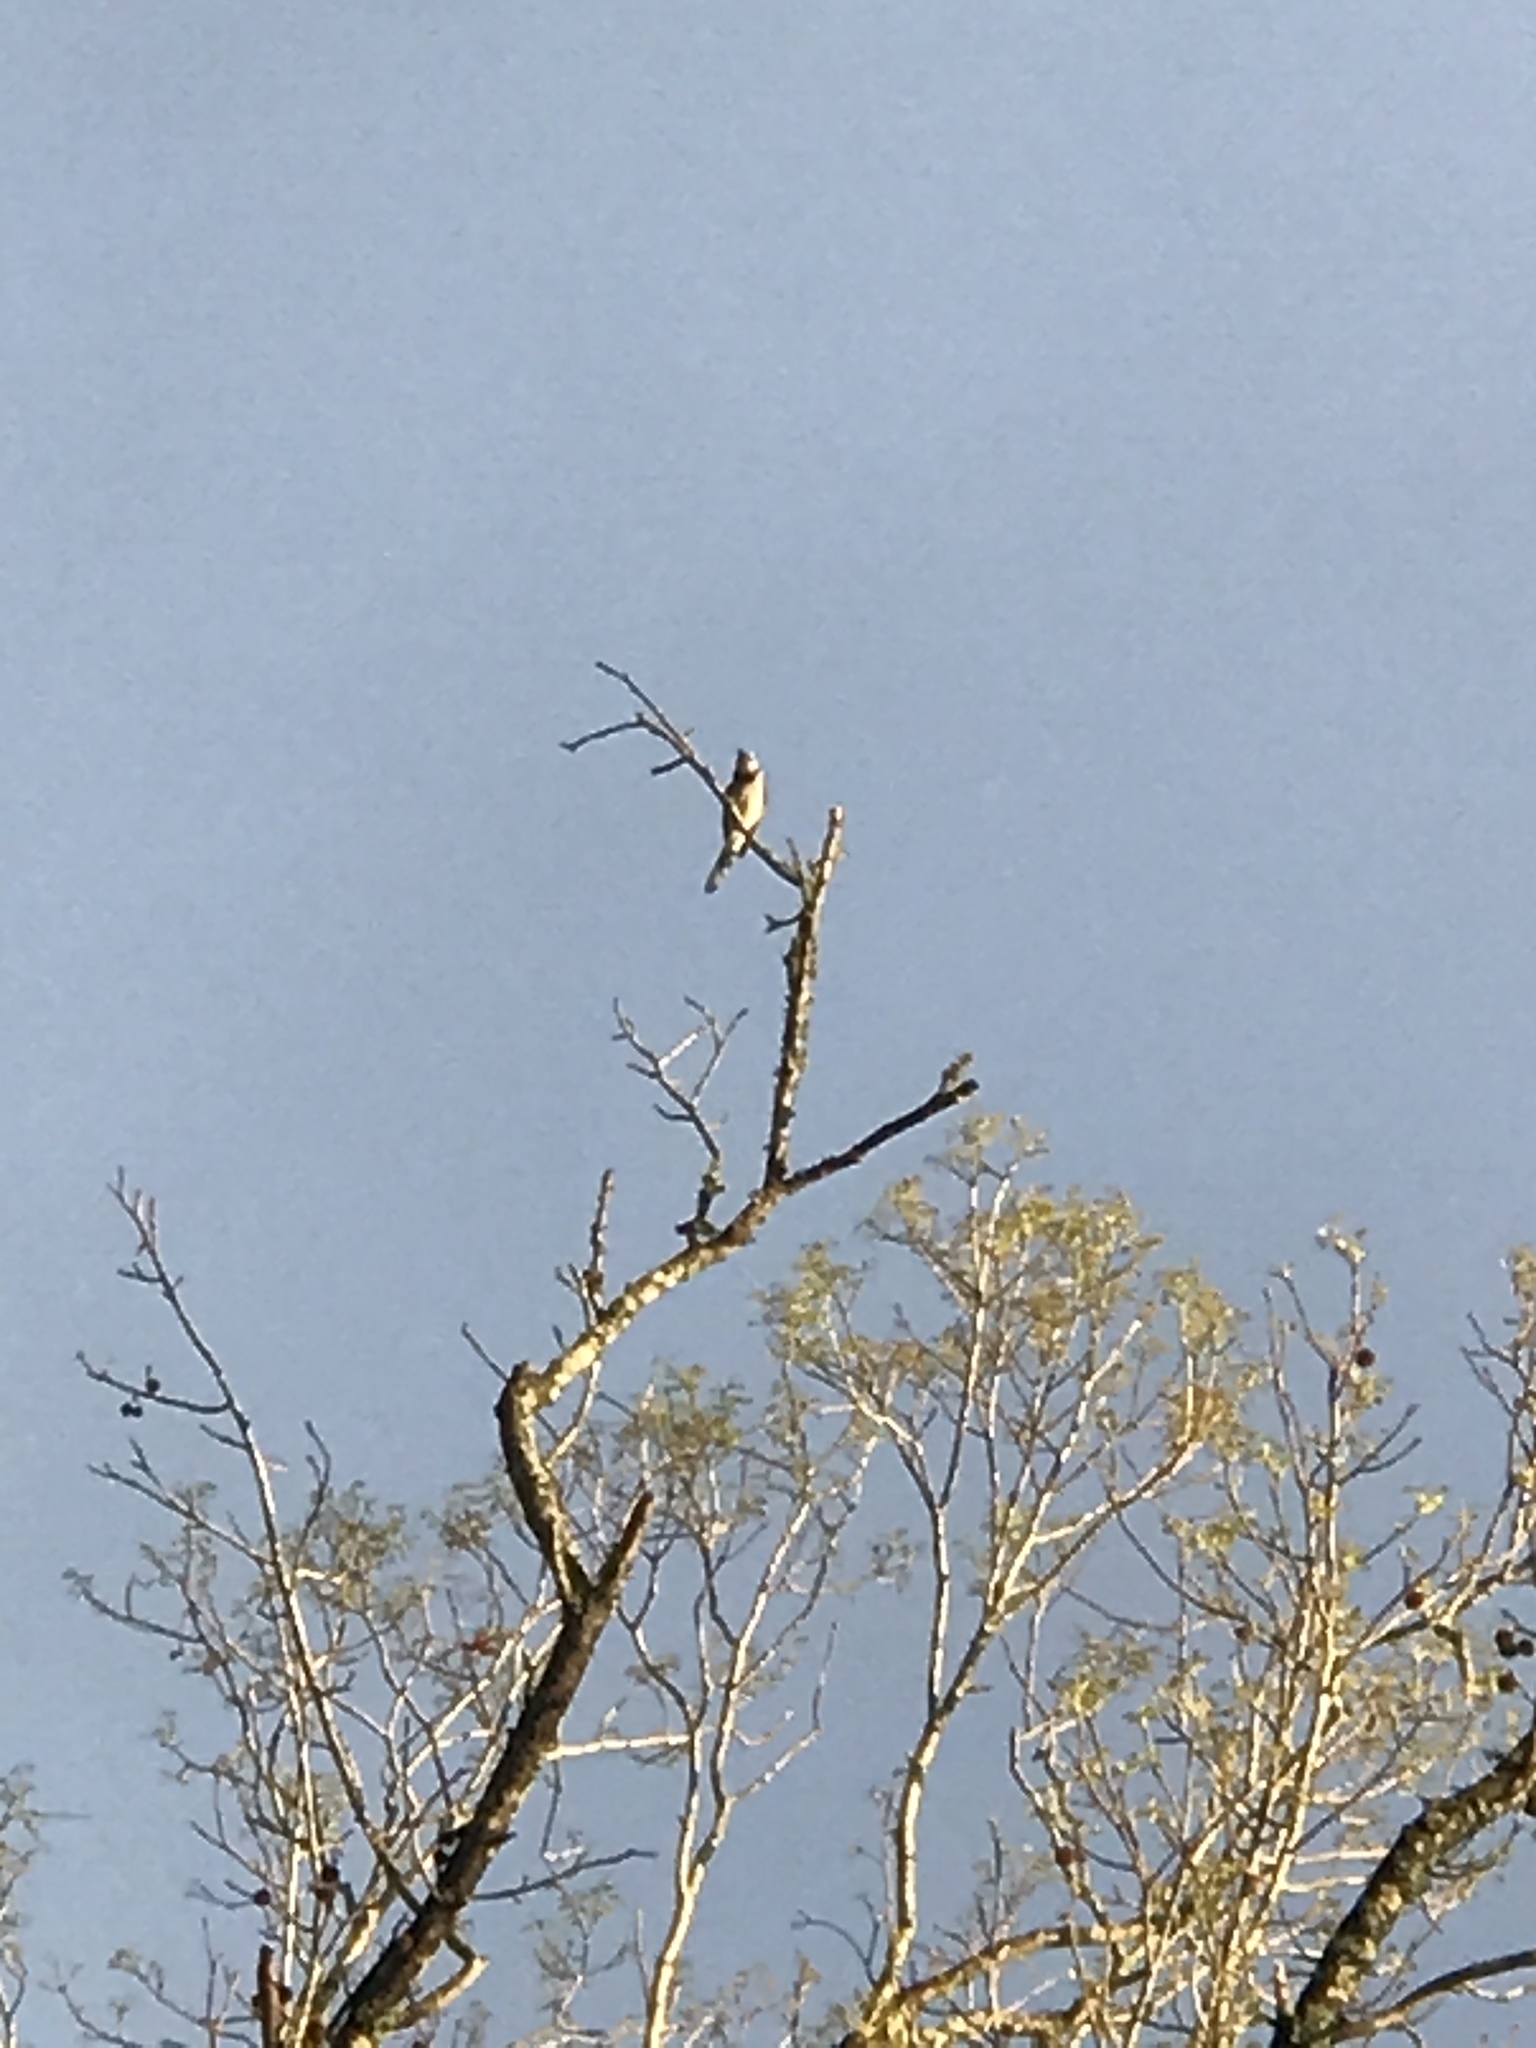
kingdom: Animalia
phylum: Chordata
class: Aves
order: Passeriformes
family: Corvidae
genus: Cyanocitta
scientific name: Cyanocitta cristata
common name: Blue jay
